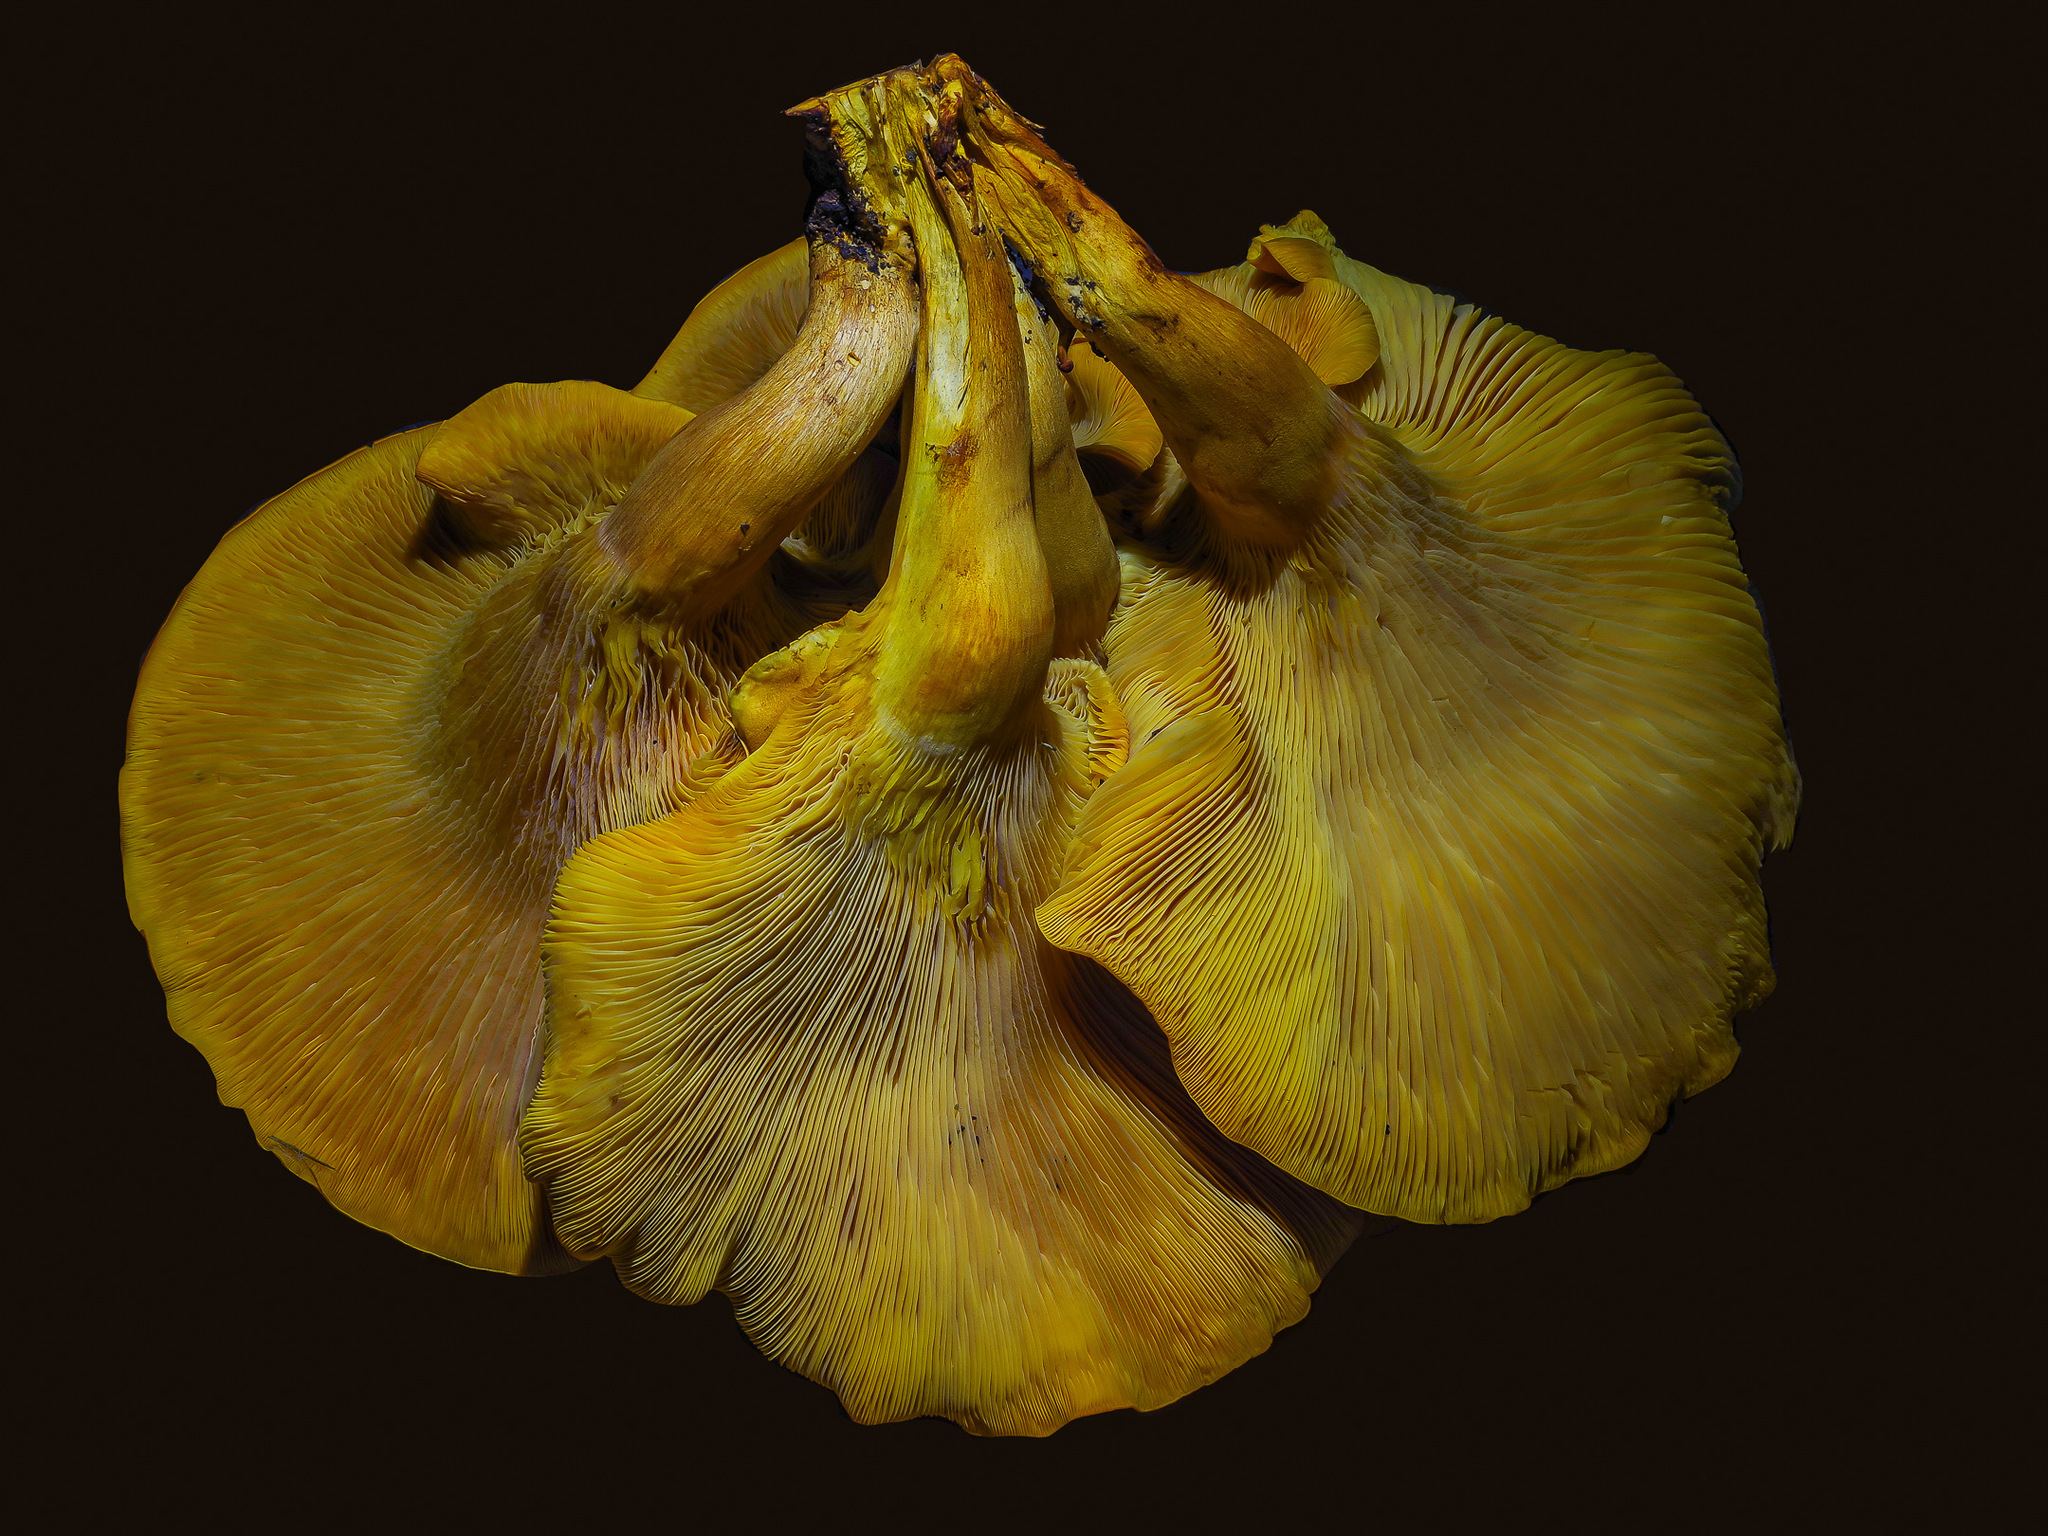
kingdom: Fungi
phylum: Basidiomycota
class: Agaricomycetes
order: Agaricales
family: Omphalotaceae
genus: Omphalotus
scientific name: Omphalotus subilludens
